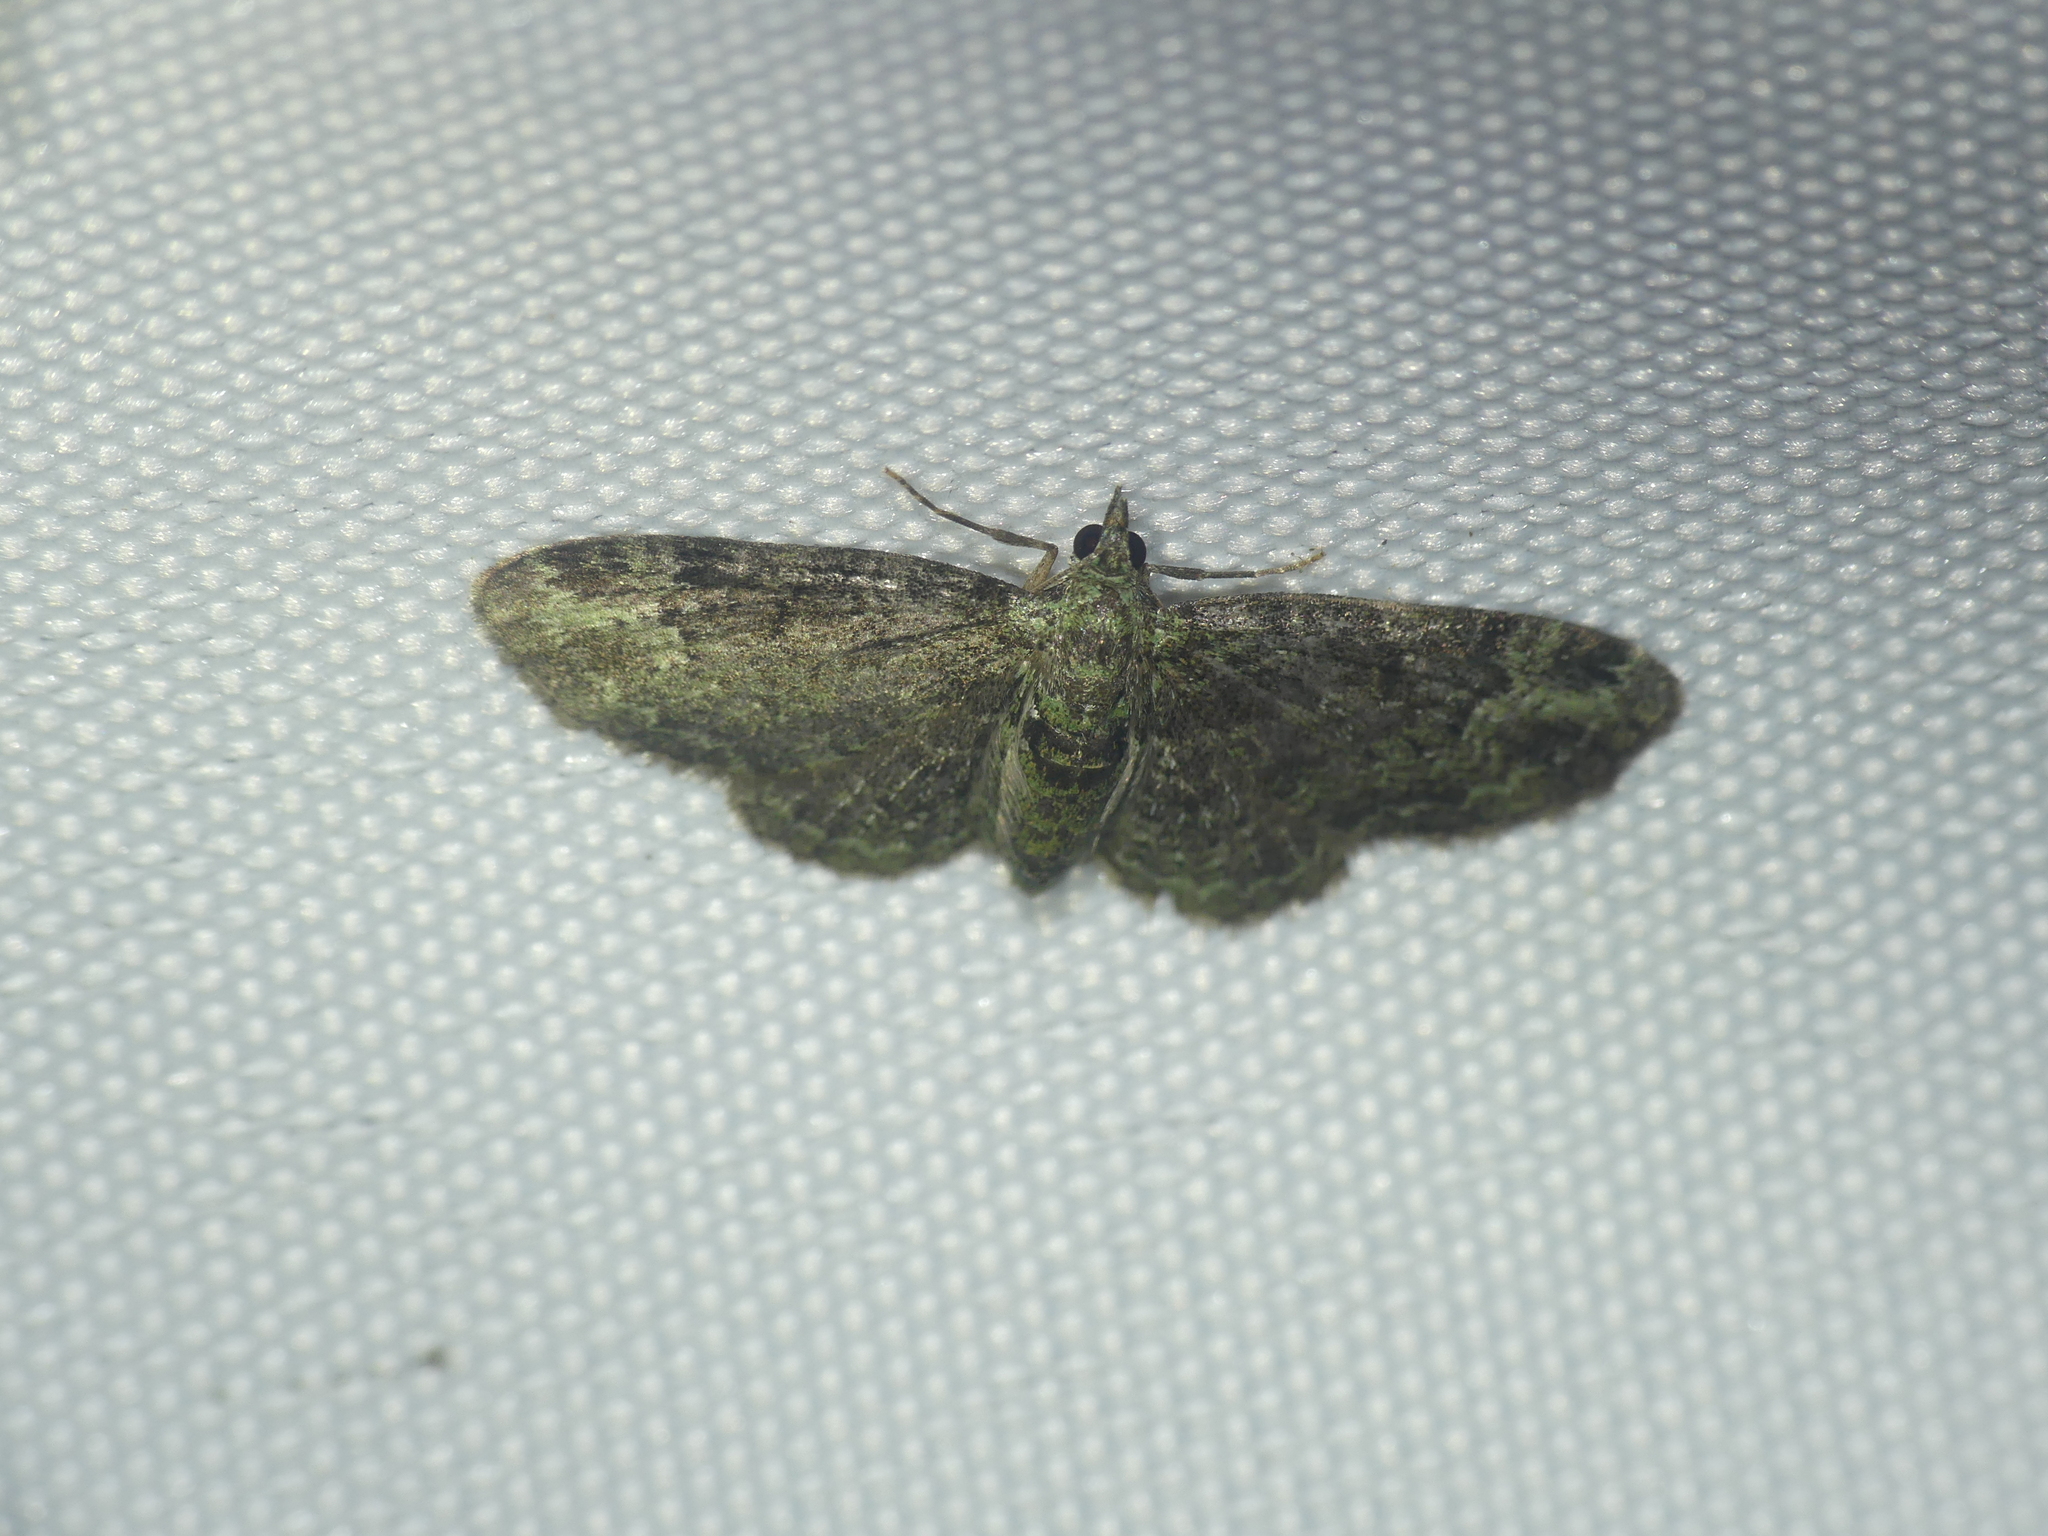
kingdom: Animalia
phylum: Arthropoda
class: Insecta
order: Lepidoptera
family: Geometridae
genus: Pasiphila
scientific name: Pasiphila rectangulata
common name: Green pug
